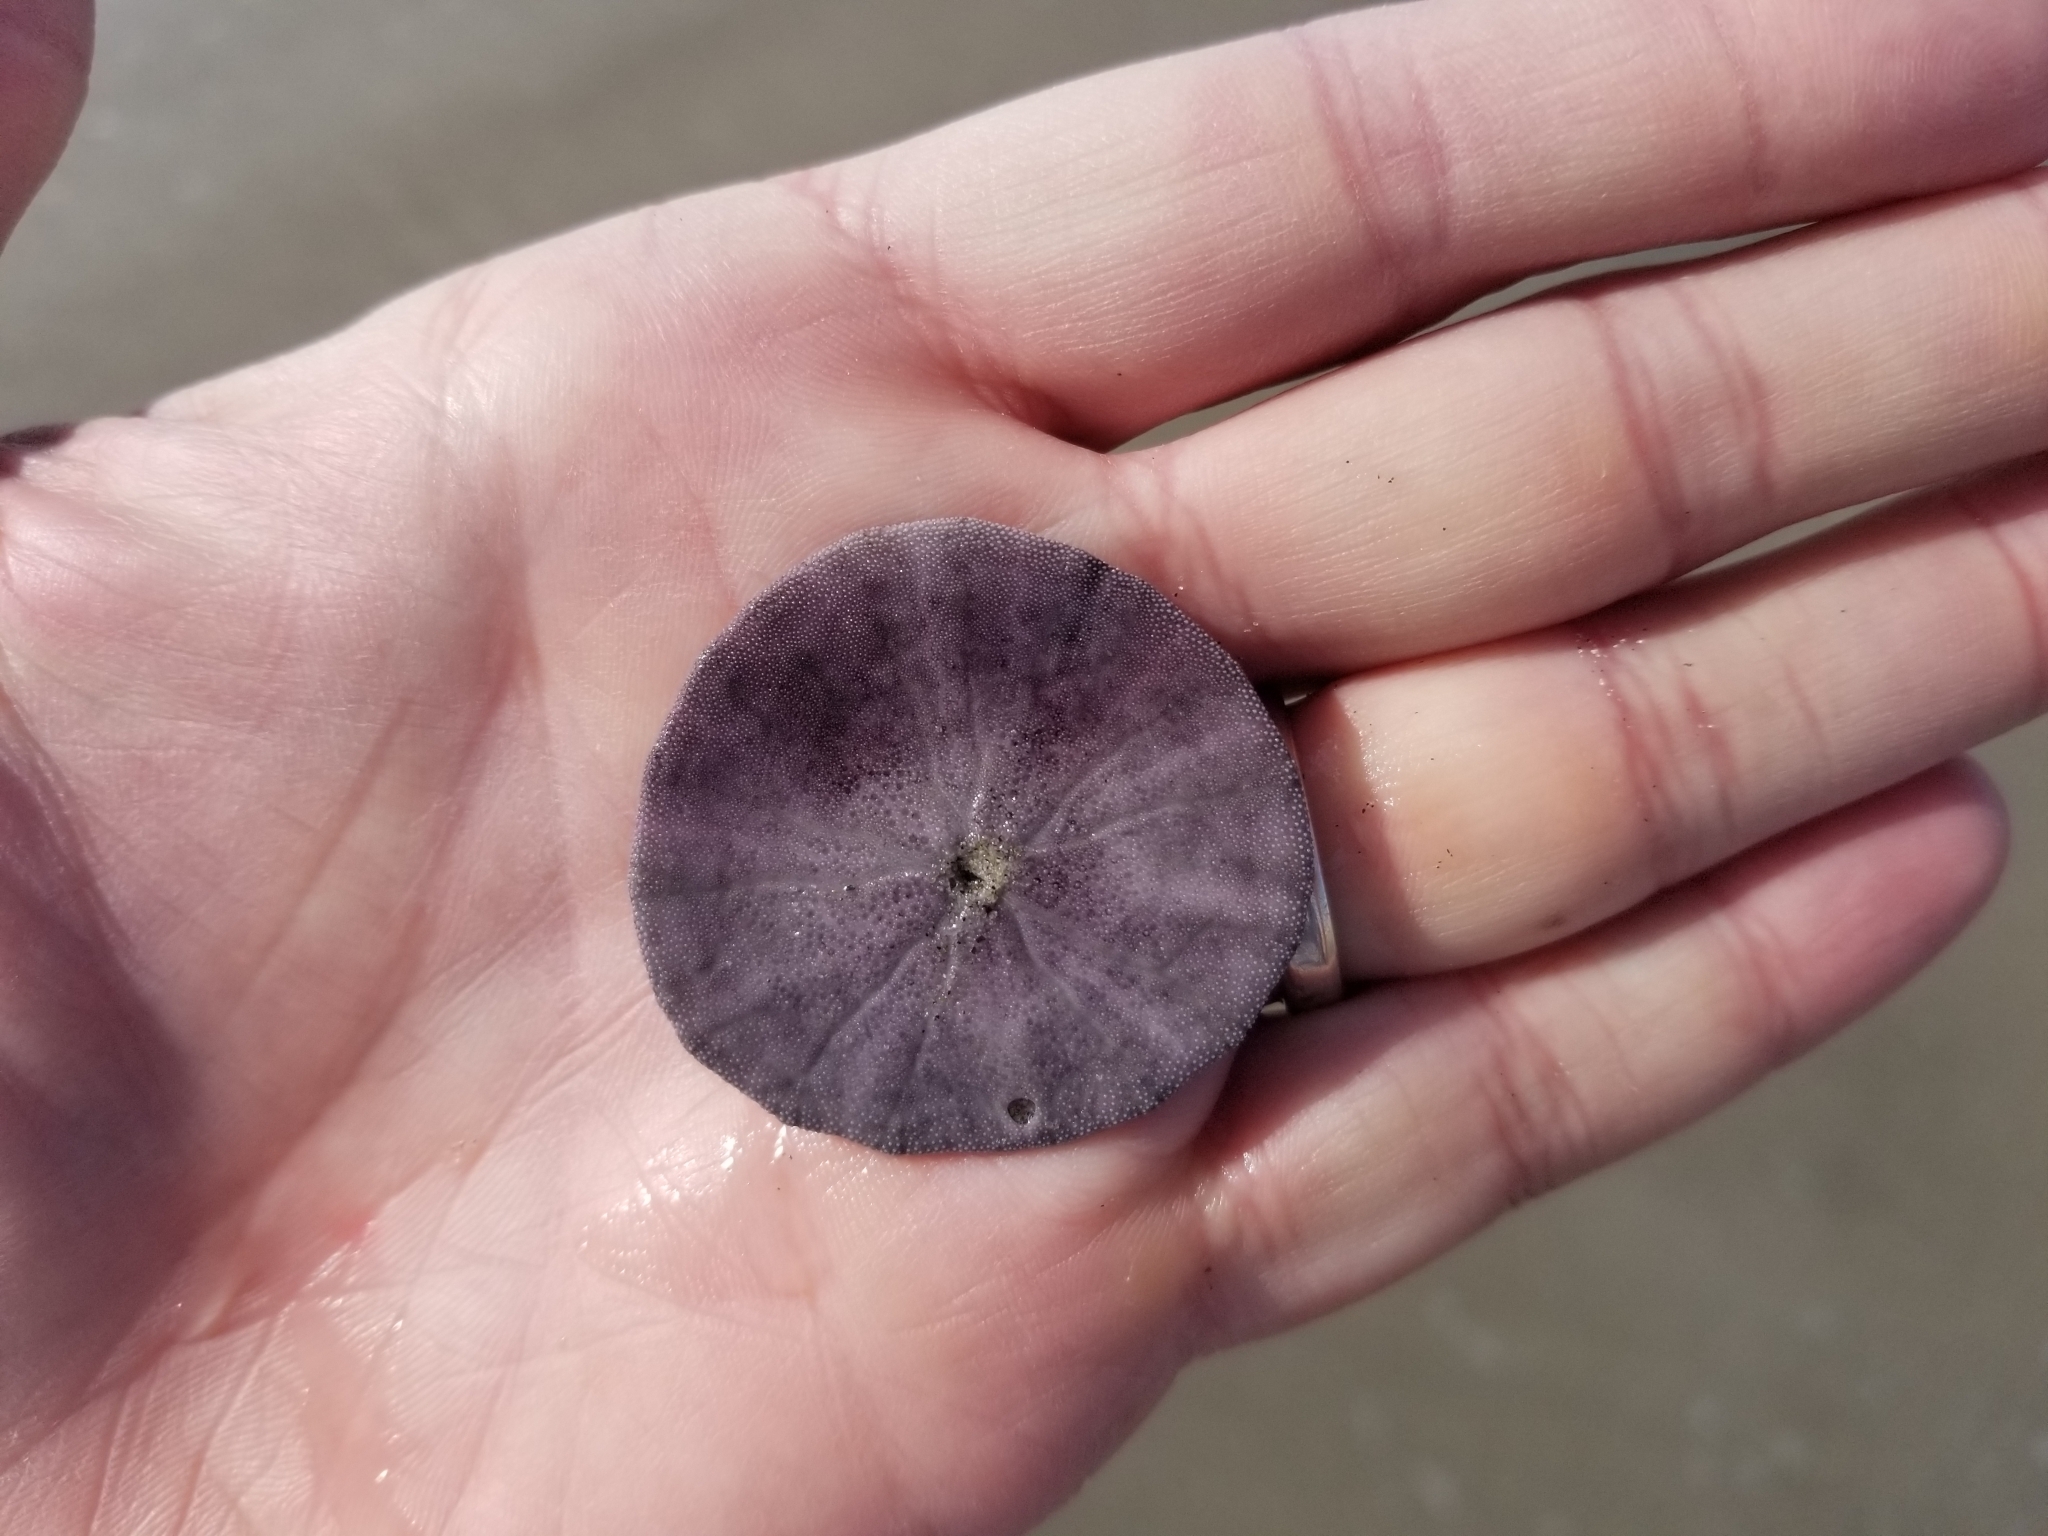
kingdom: Animalia
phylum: Echinodermata
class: Echinoidea
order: Echinolampadacea
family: Dendrasteridae
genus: Dendraster
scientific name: Dendraster excentricus
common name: Eccentric sand dollar sea urchin
